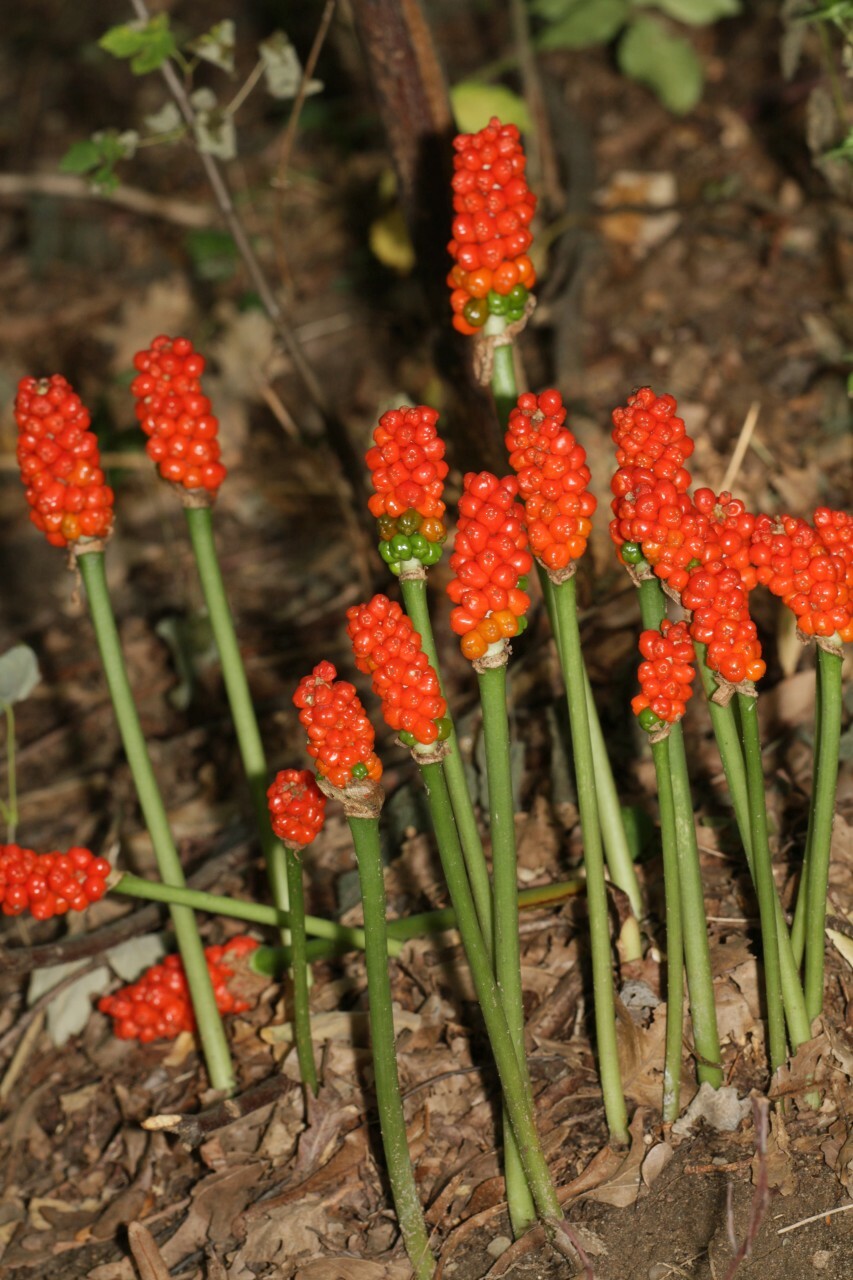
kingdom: Plantae
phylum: Tracheophyta
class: Liliopsida
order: Alismatales
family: Araceae
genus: Arum
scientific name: Arum maculatum
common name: Lords-and-ladies
